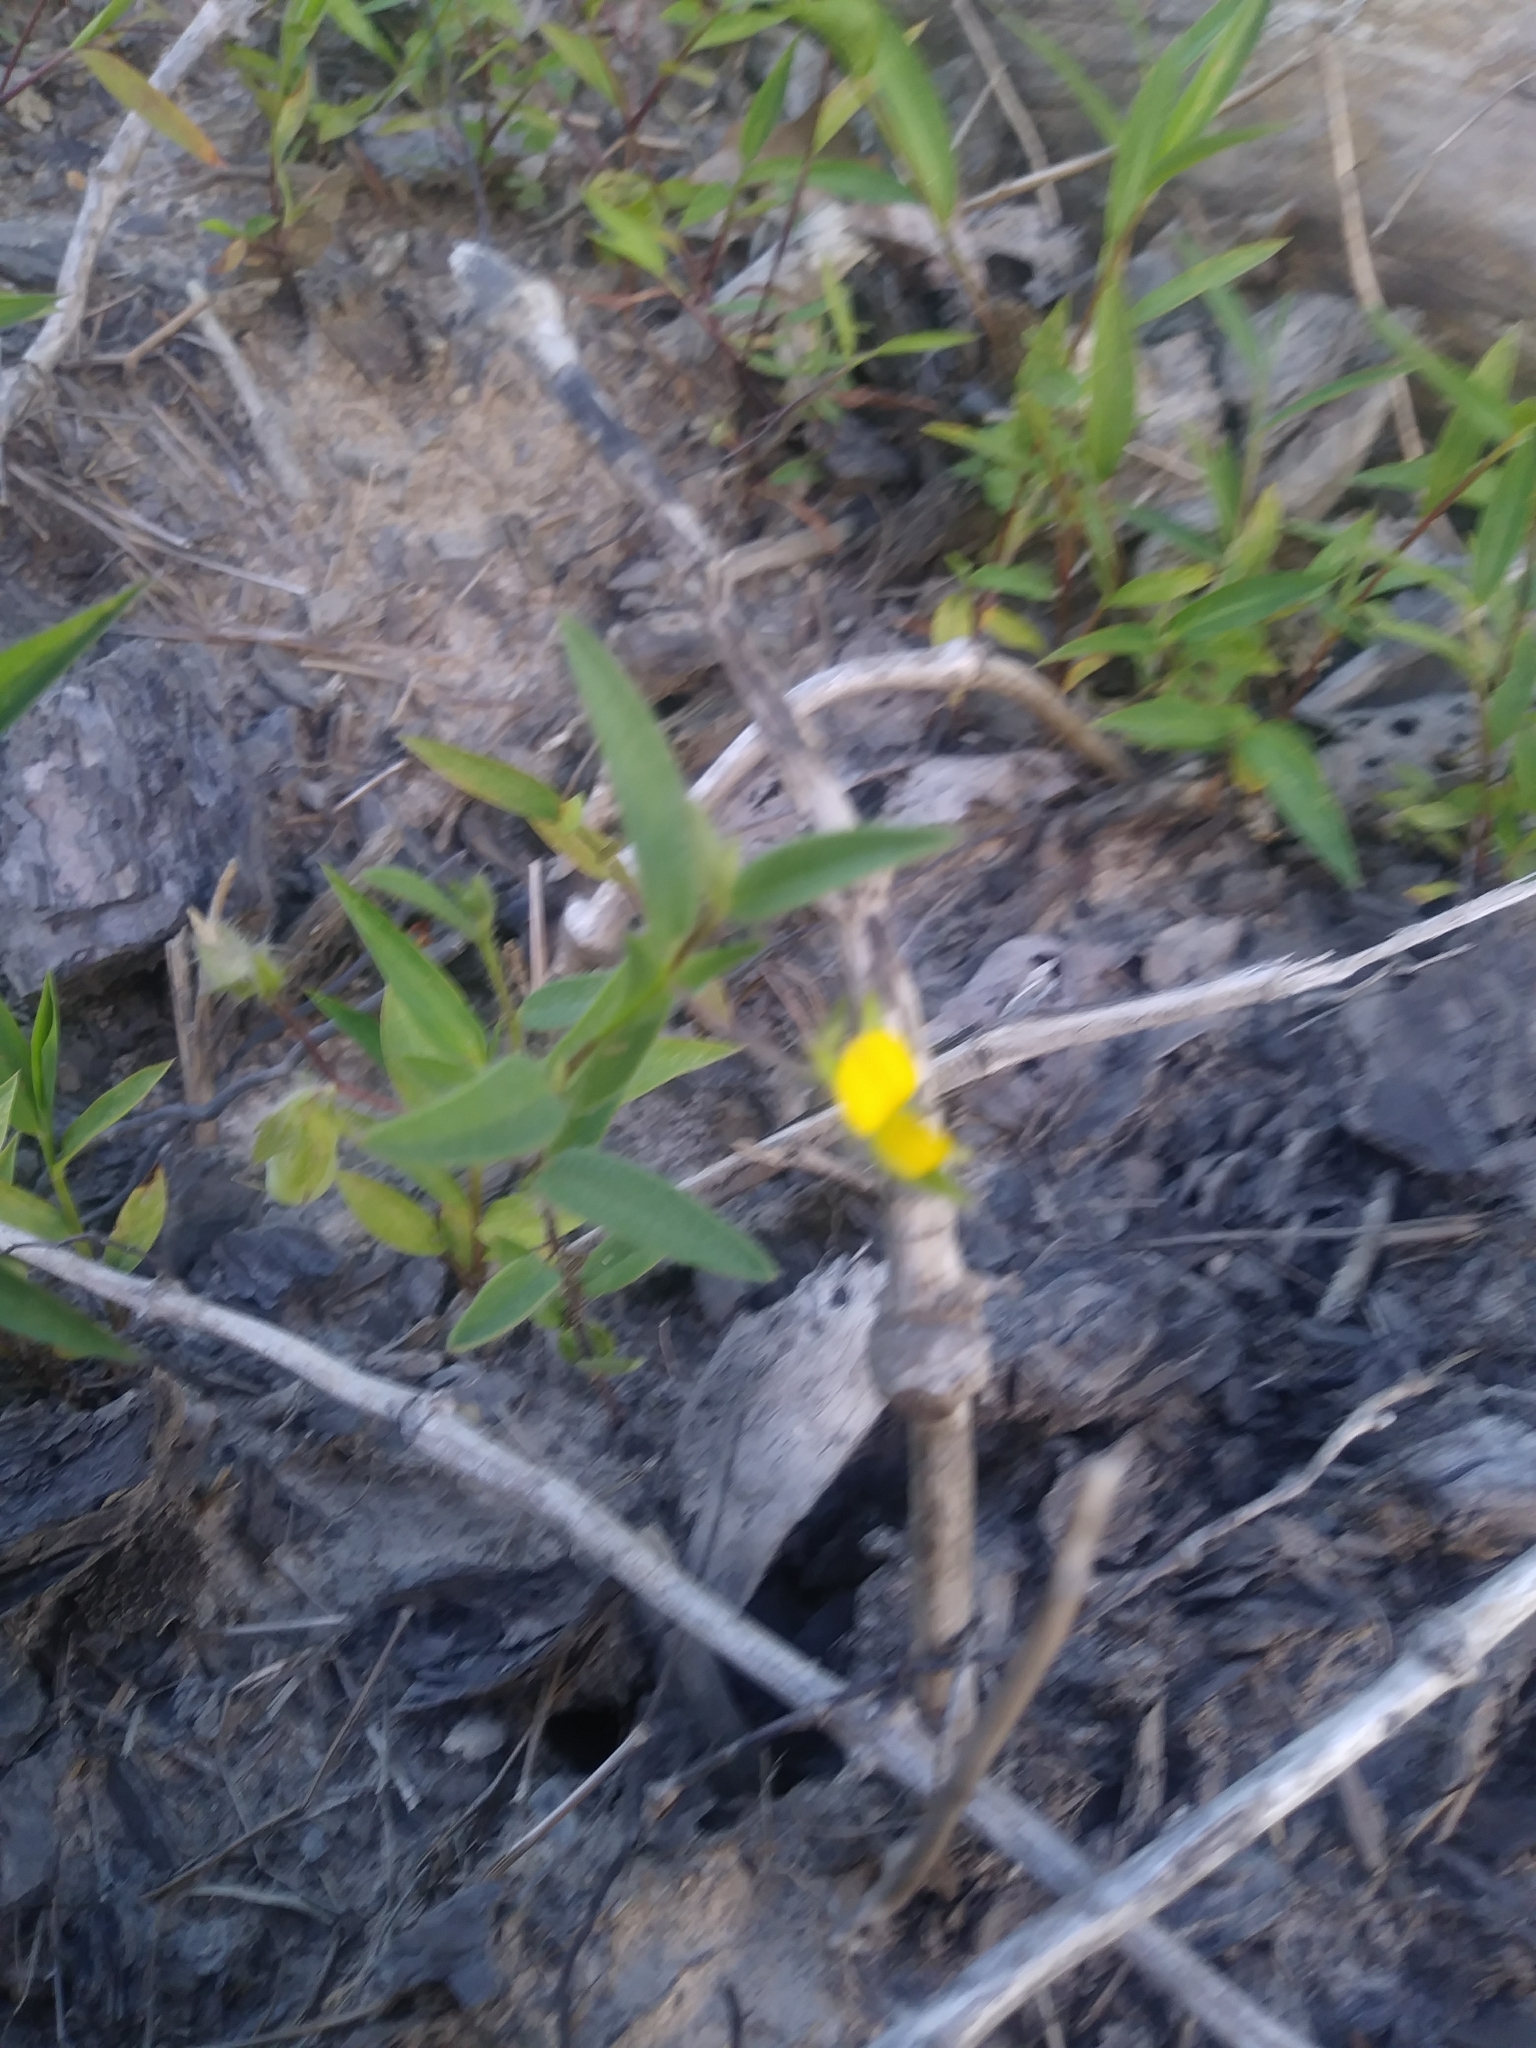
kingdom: Plantae
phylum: Tracheophyta
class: Magnoliopsida
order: Fabales
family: Fabaceae
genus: Crotalaria
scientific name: Crotalaria sagittalis
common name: Arrowhead rattlebox
